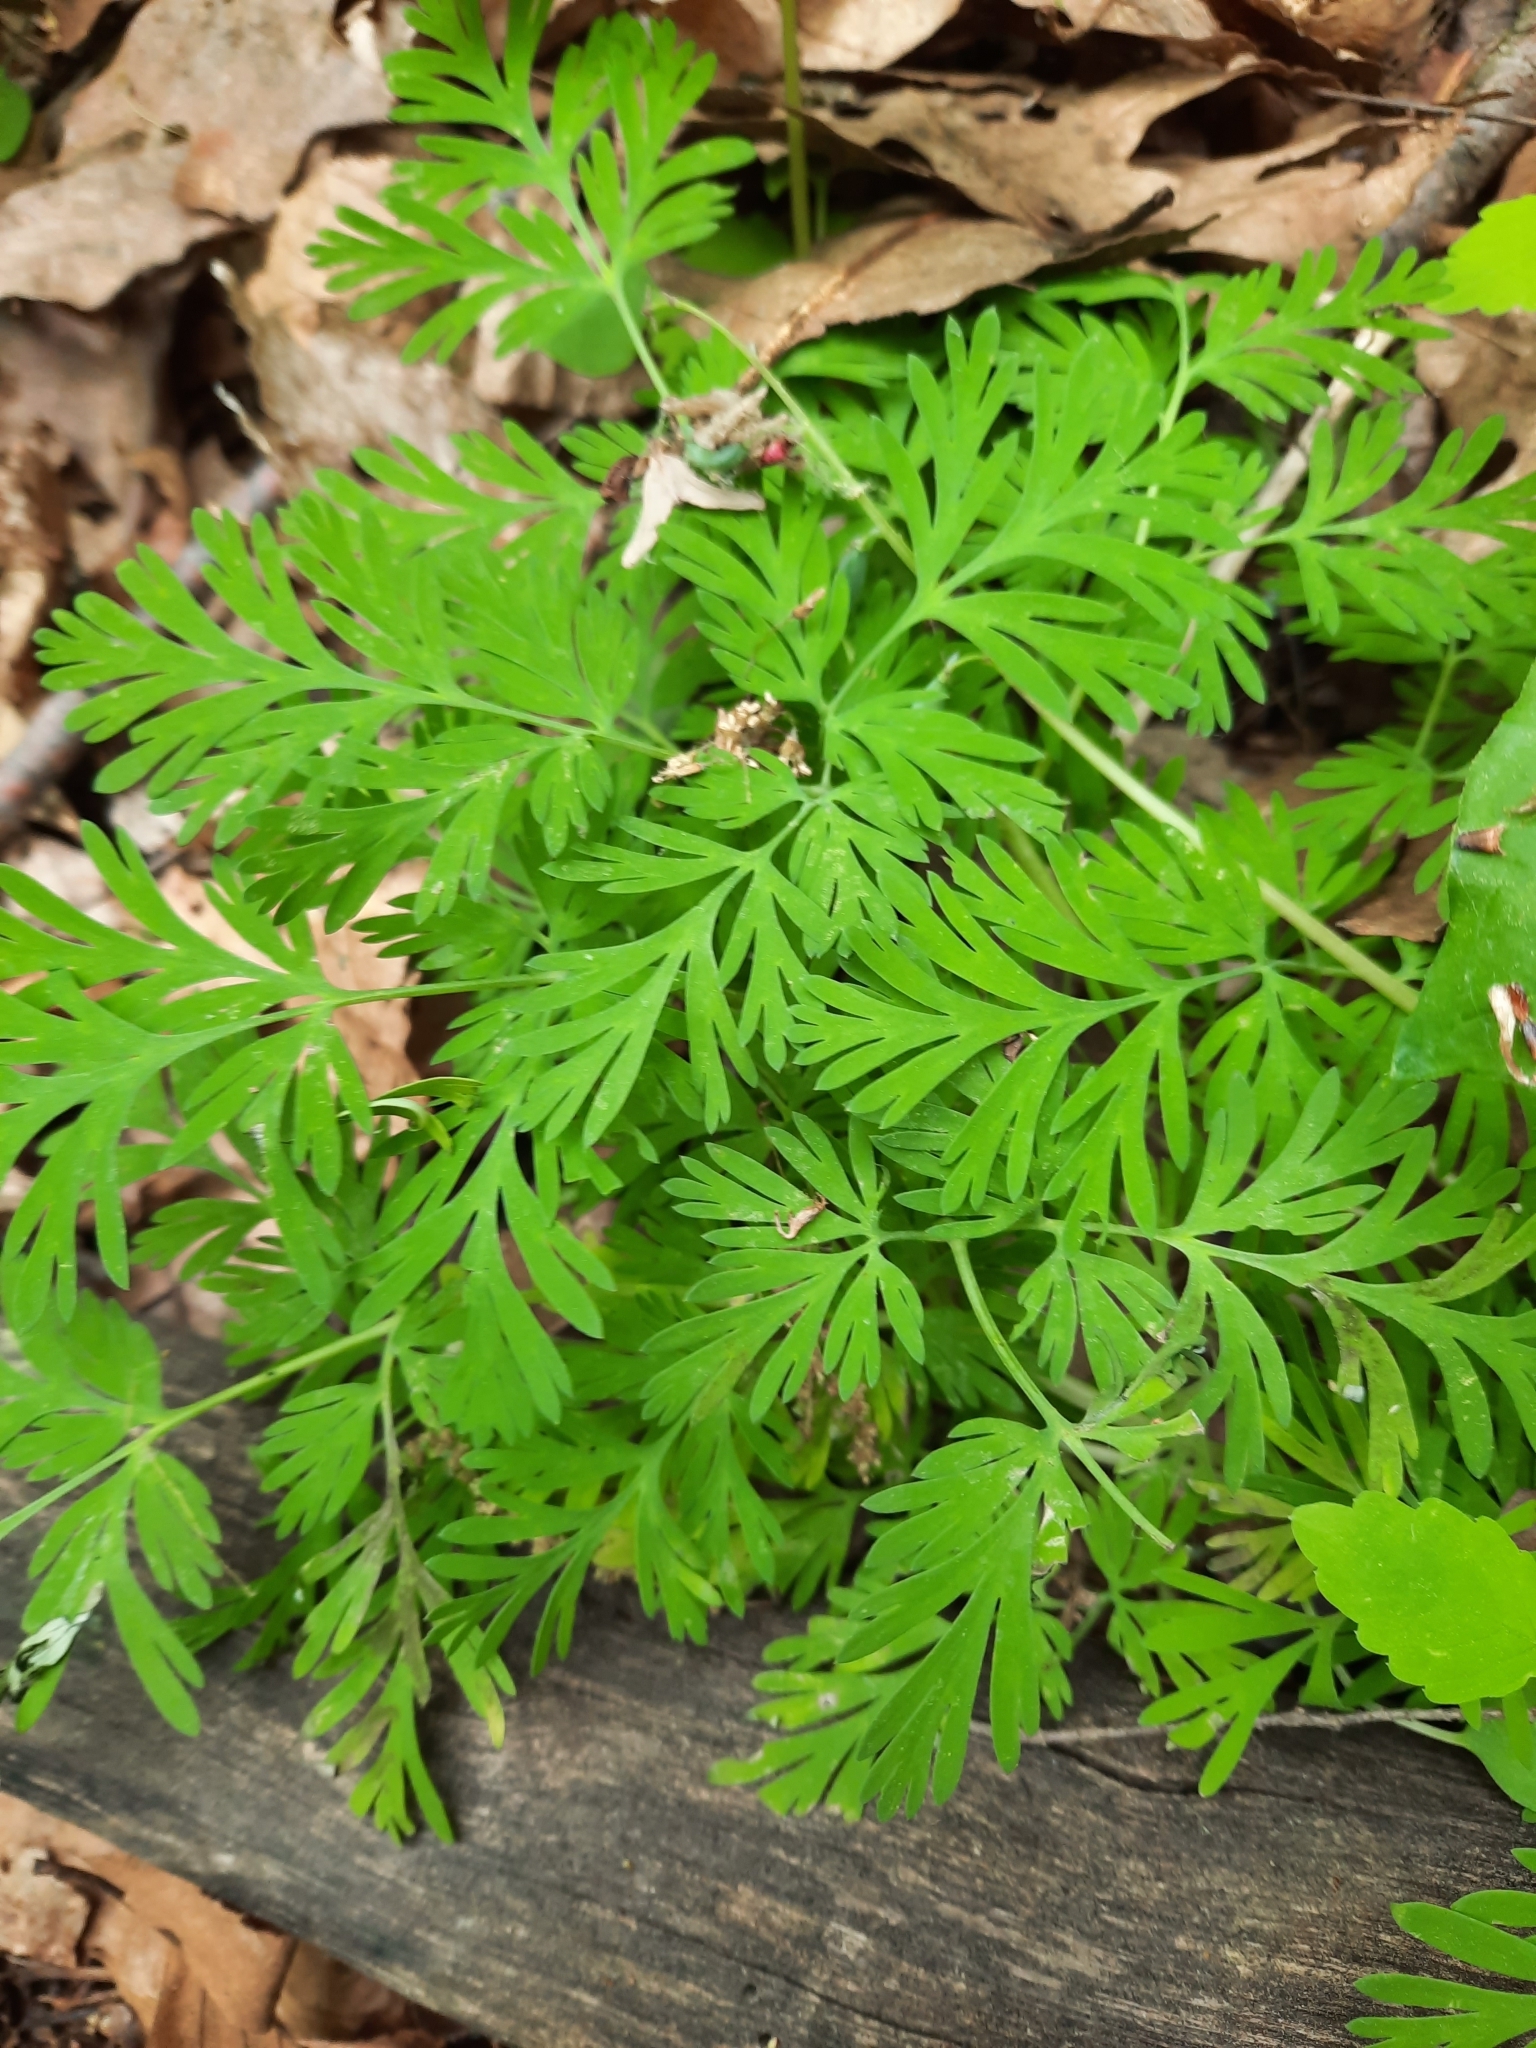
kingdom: Plantae
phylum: Tracheophyta
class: Magnoliopsida
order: Ranunculales
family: Papaveraceae
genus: Dicentra
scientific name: Dicentra cucullaria
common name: Dutchman's breeches
